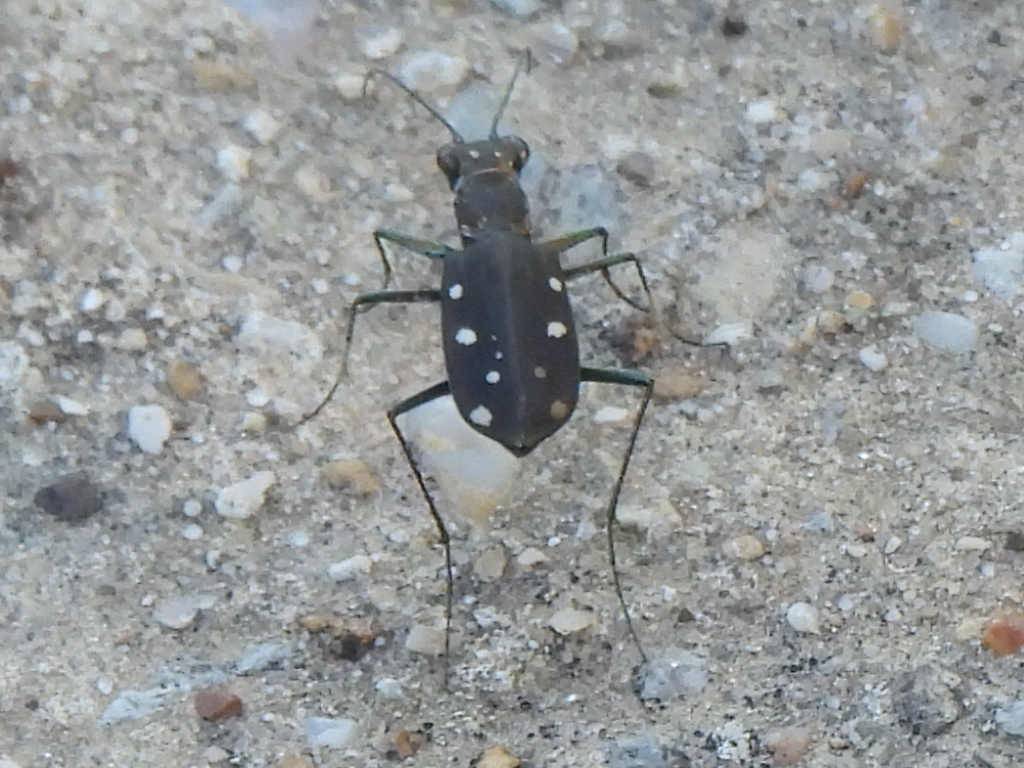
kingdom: Animalia
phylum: Arthropoda
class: Insecta
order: Coleoptera
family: Carabidae
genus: Cicindela
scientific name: Cicindela ocellata
